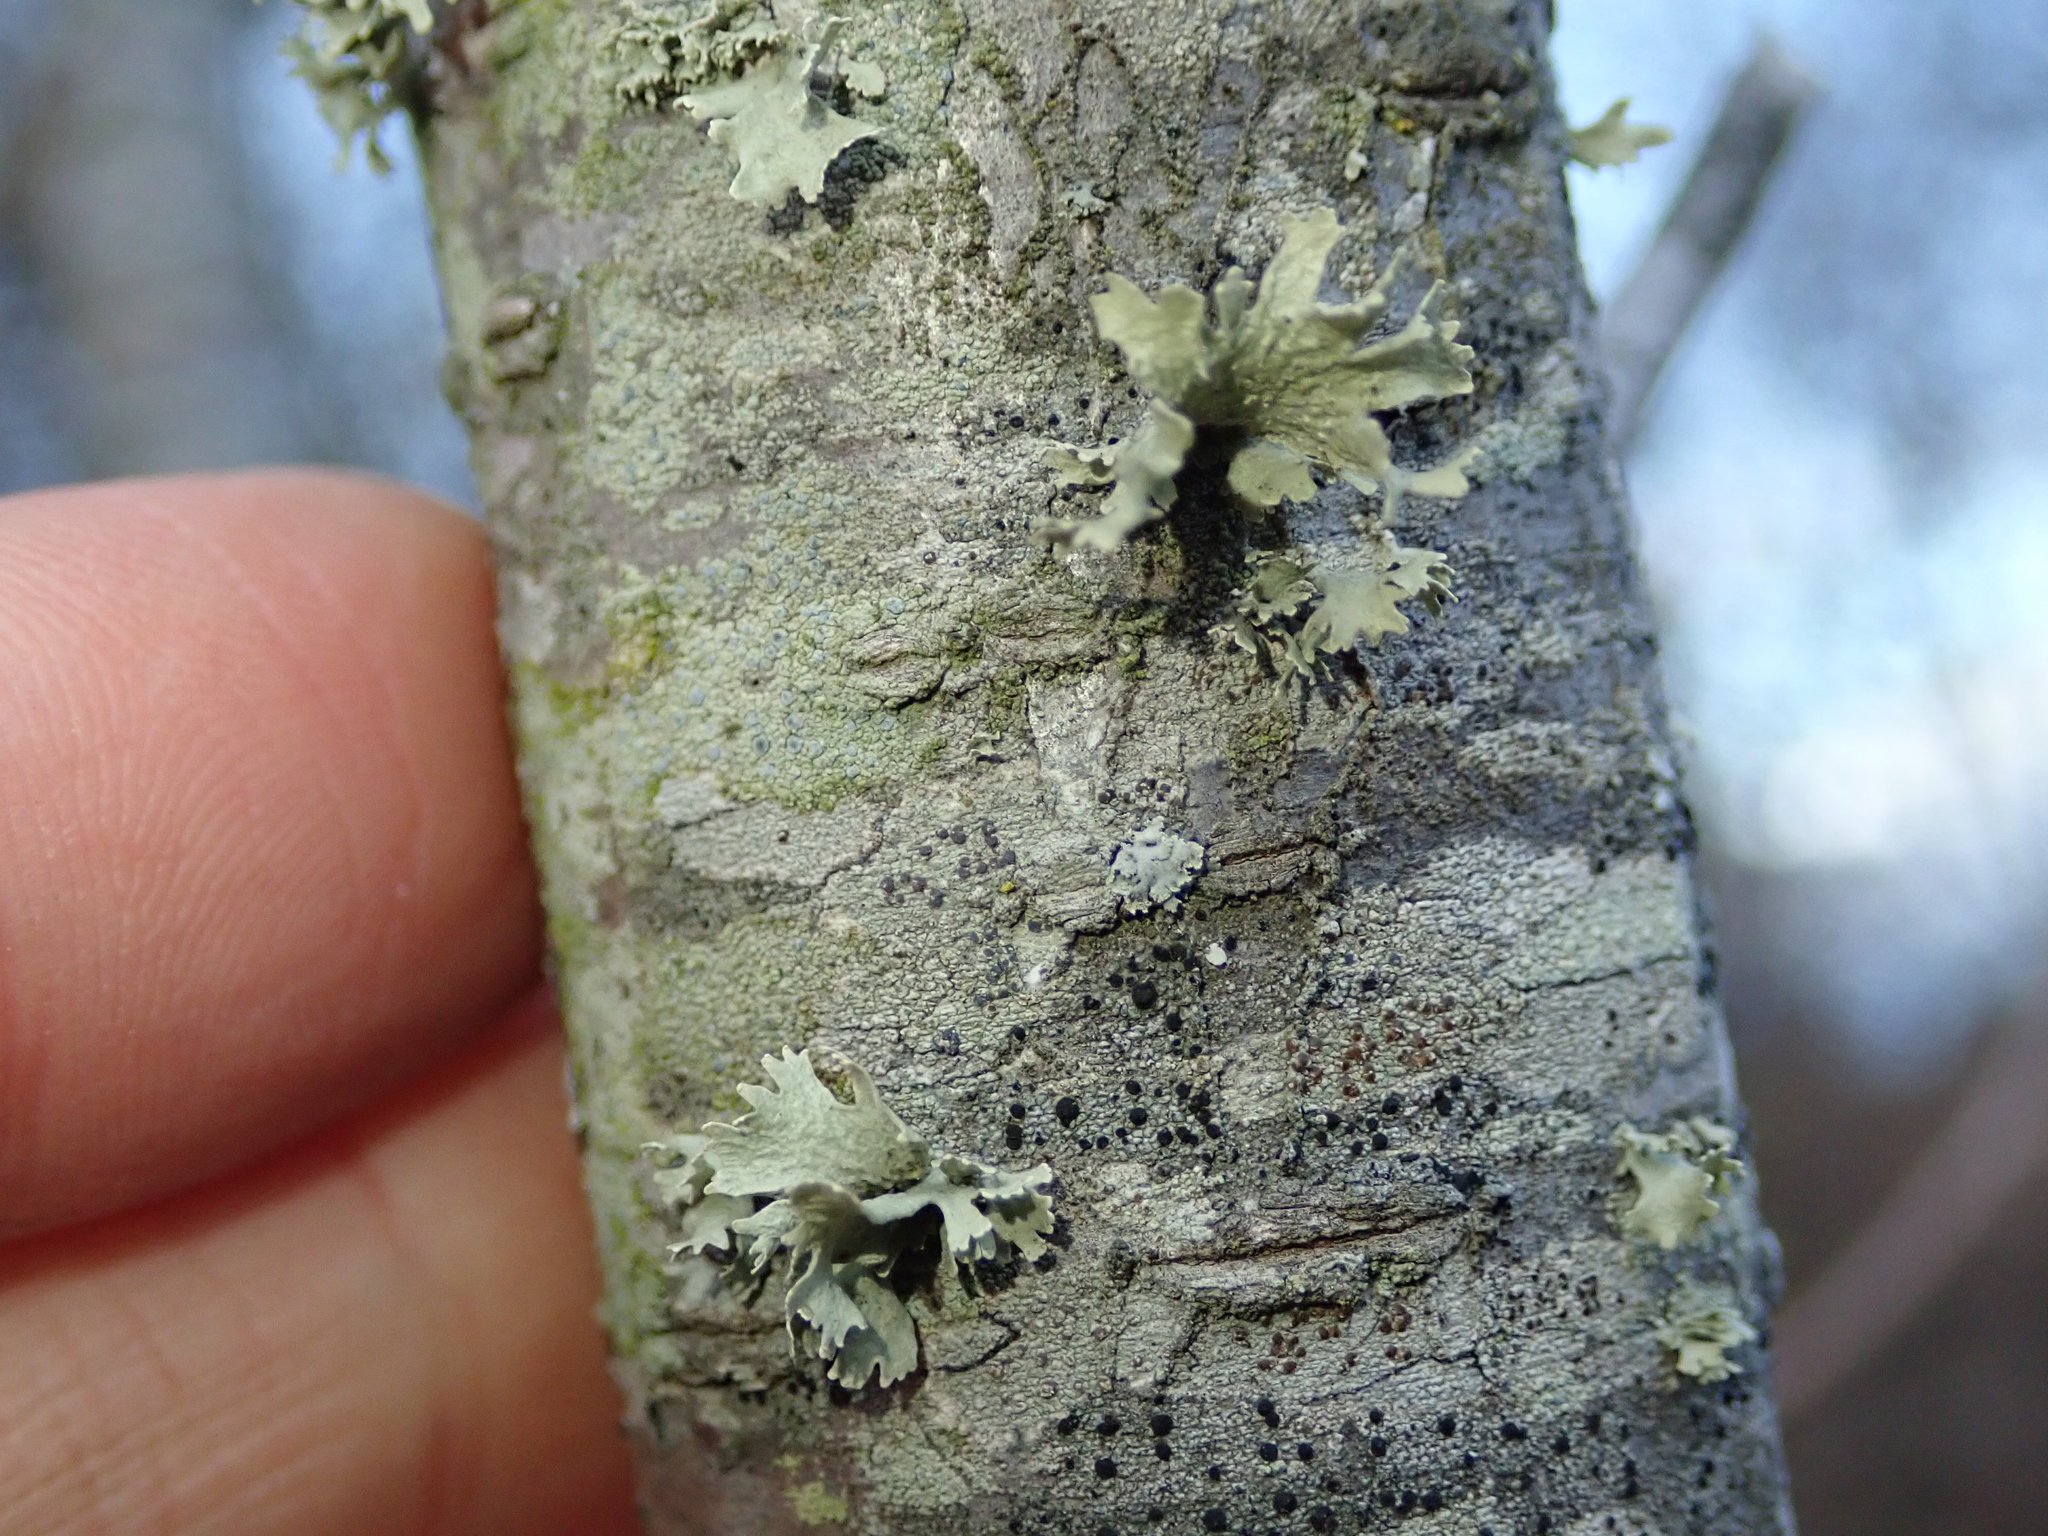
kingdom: Fungi
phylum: Ascomycota
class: Lecanoromycetes
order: Lecanorales
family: Ramalinaceae
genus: Ramalina
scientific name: Ramalina americana
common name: Sinewed bush lichen
